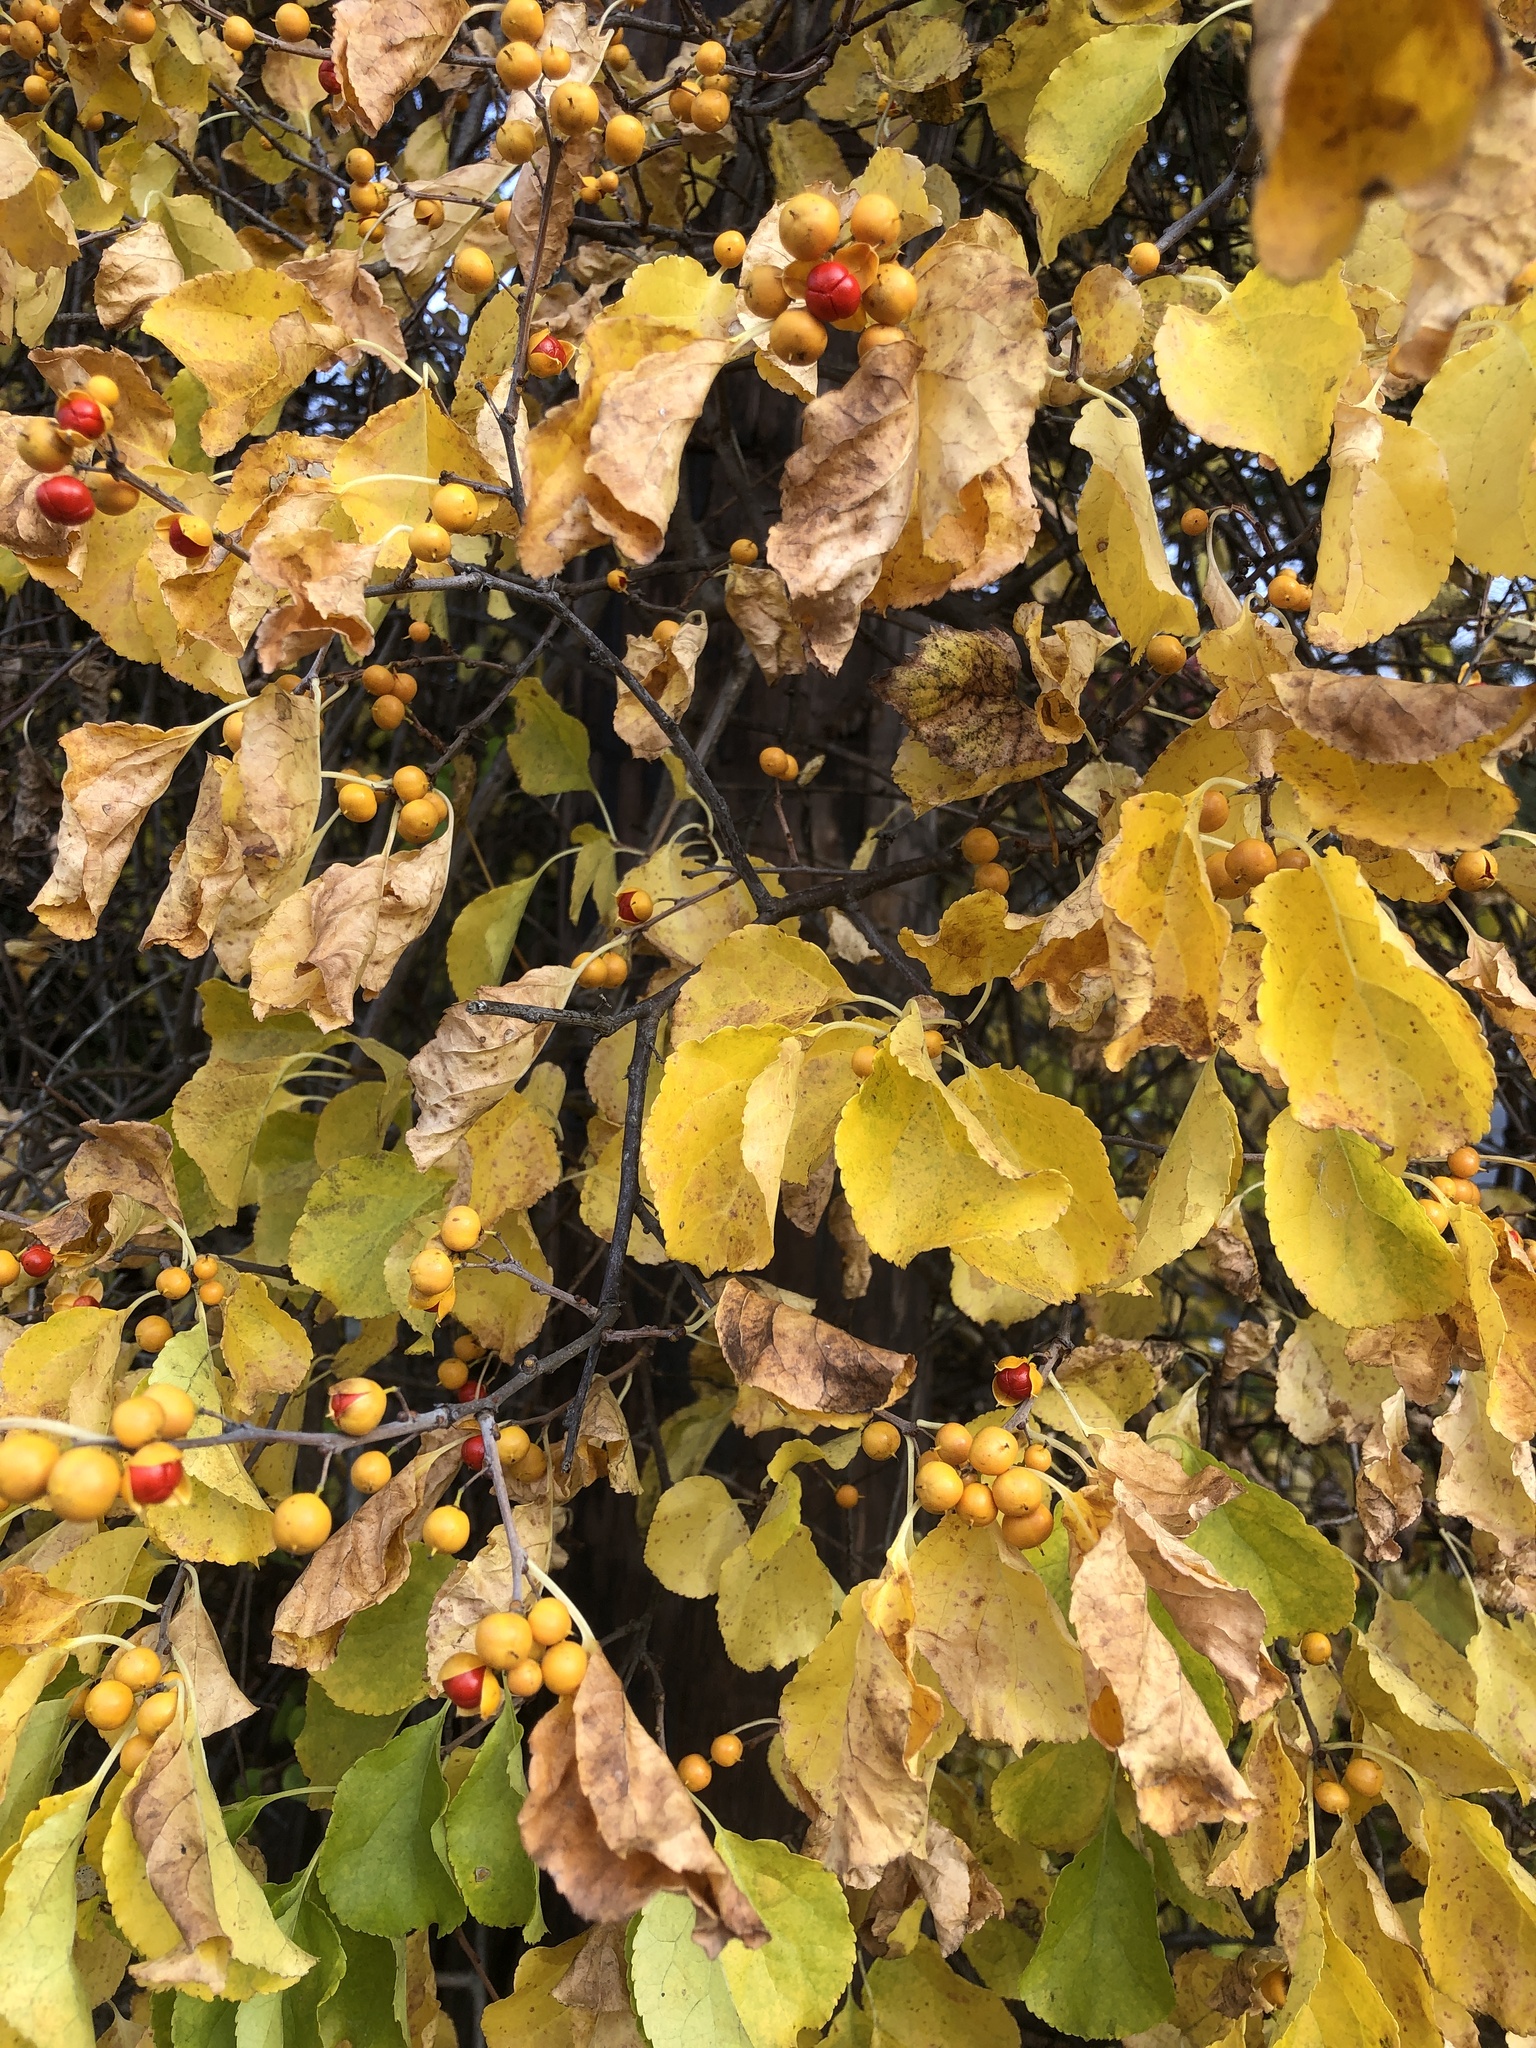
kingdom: Plantae
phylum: Tracheophyta
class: Magnoliopsida
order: Celastrales
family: Celastraceae
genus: Celastrus
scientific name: Celastrus orbiculatus
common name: Oriental bittersweet
